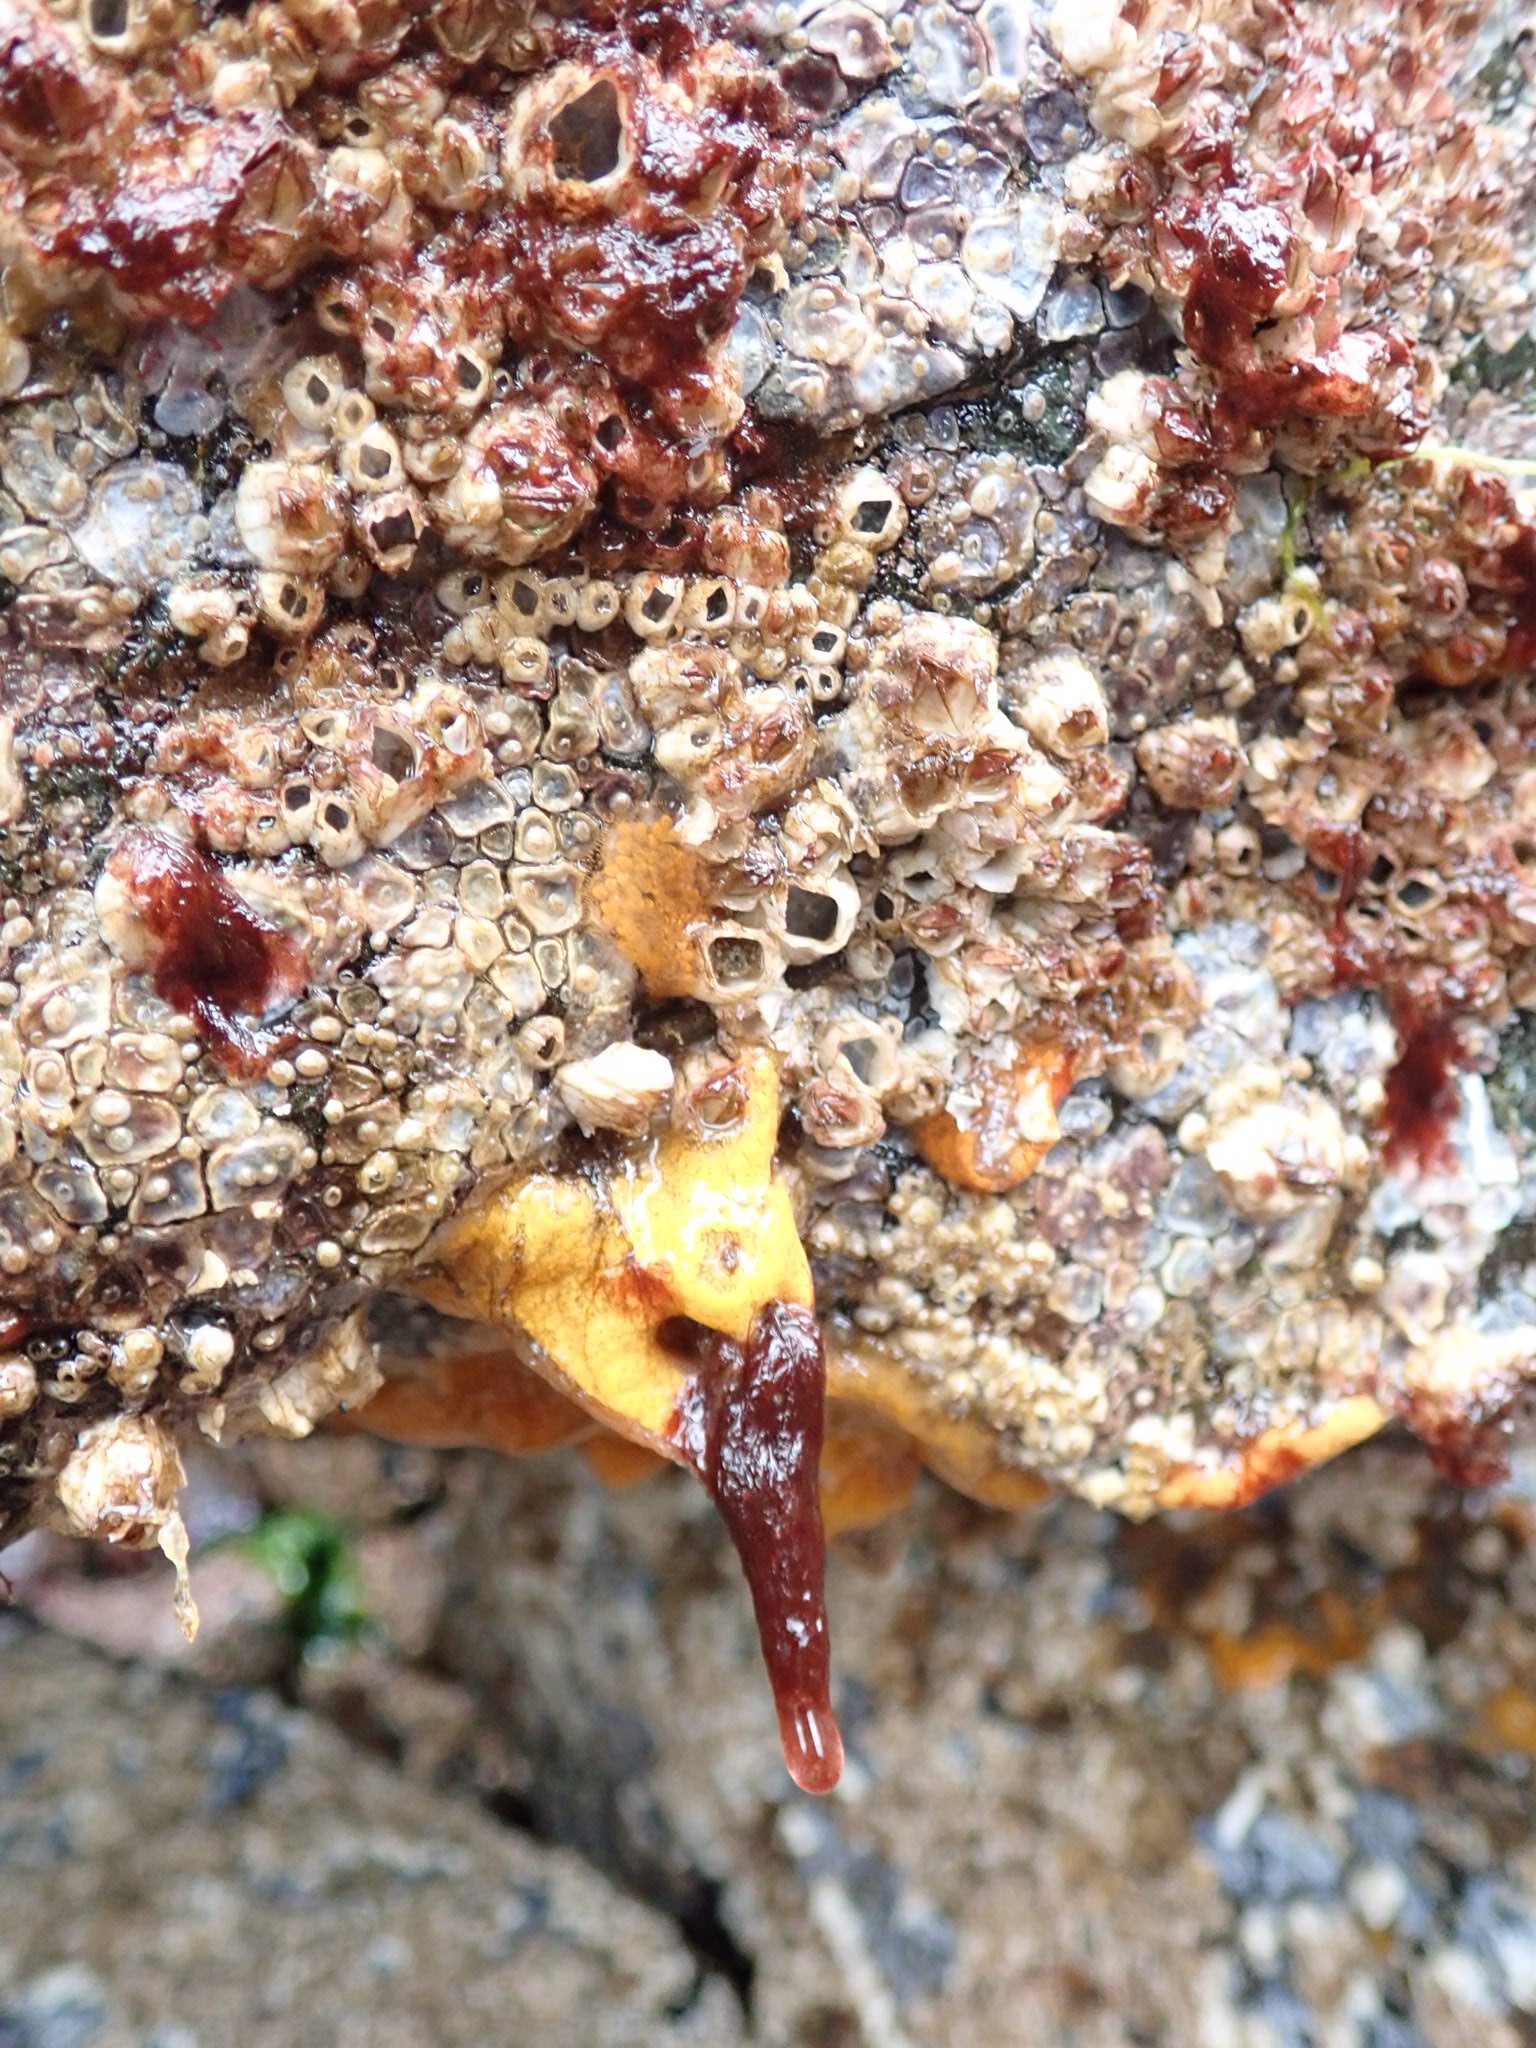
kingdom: Animalia
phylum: Chordata
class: Ascidiacea
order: Stolidobranchia
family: Styelidae
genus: Botrylloides
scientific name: Botrylloides violaceus
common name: Colonial sea squirt
